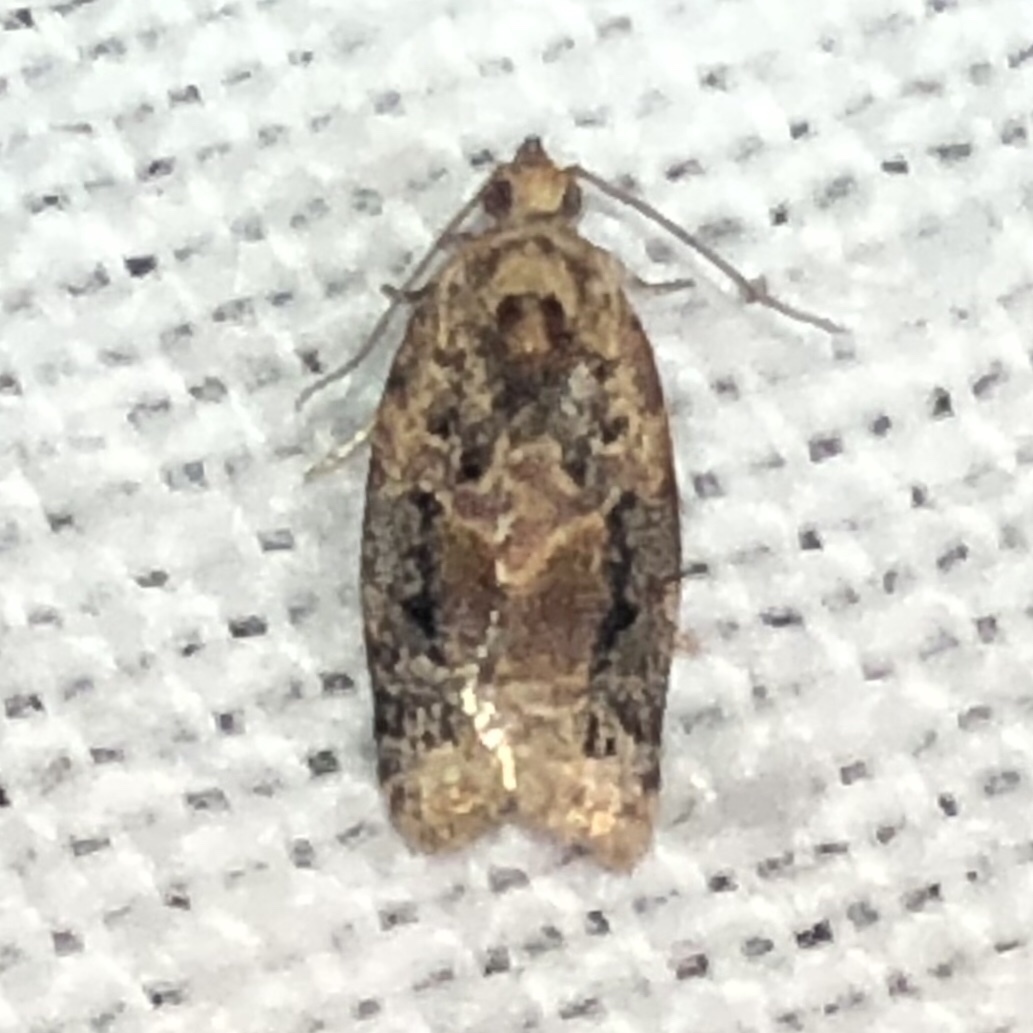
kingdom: Animalia
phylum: Arthropoda
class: Insecta
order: Lepidoptera
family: Tortricidae
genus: Argyrotaenia
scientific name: Argyrotaenia velutinana
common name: Red-banded leafroller moth
